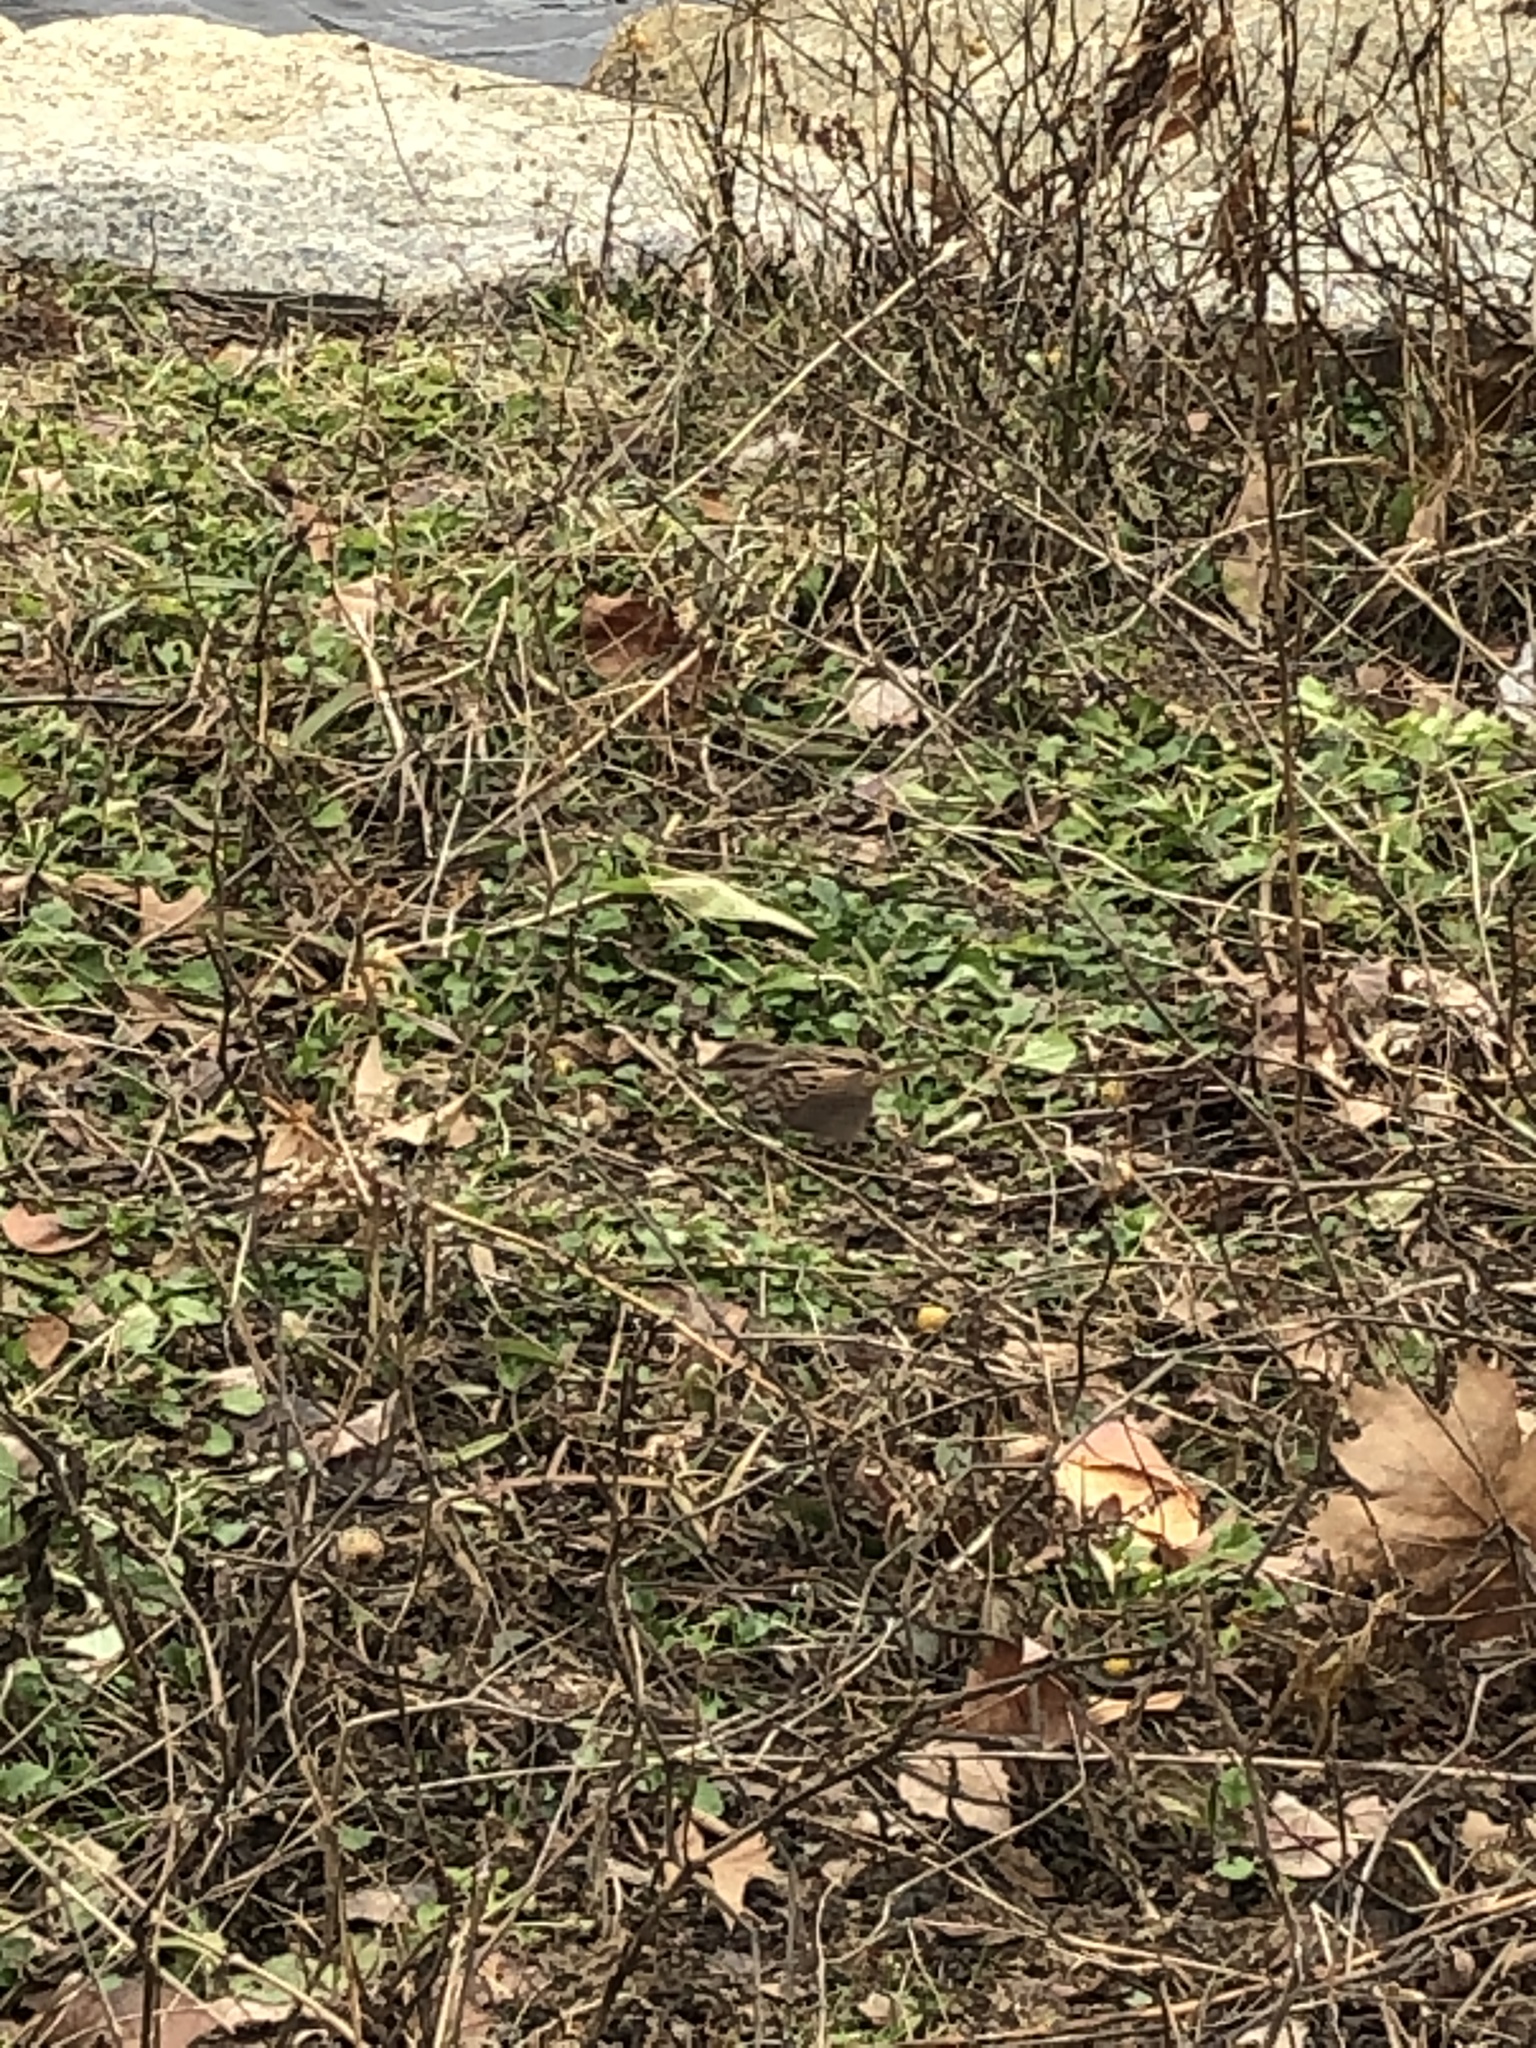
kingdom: Animalia
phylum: Chordata
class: Aves
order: Passeriformes
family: Passerellidae
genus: Melospiza
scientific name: Melospiza melodia
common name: Song sparrow
